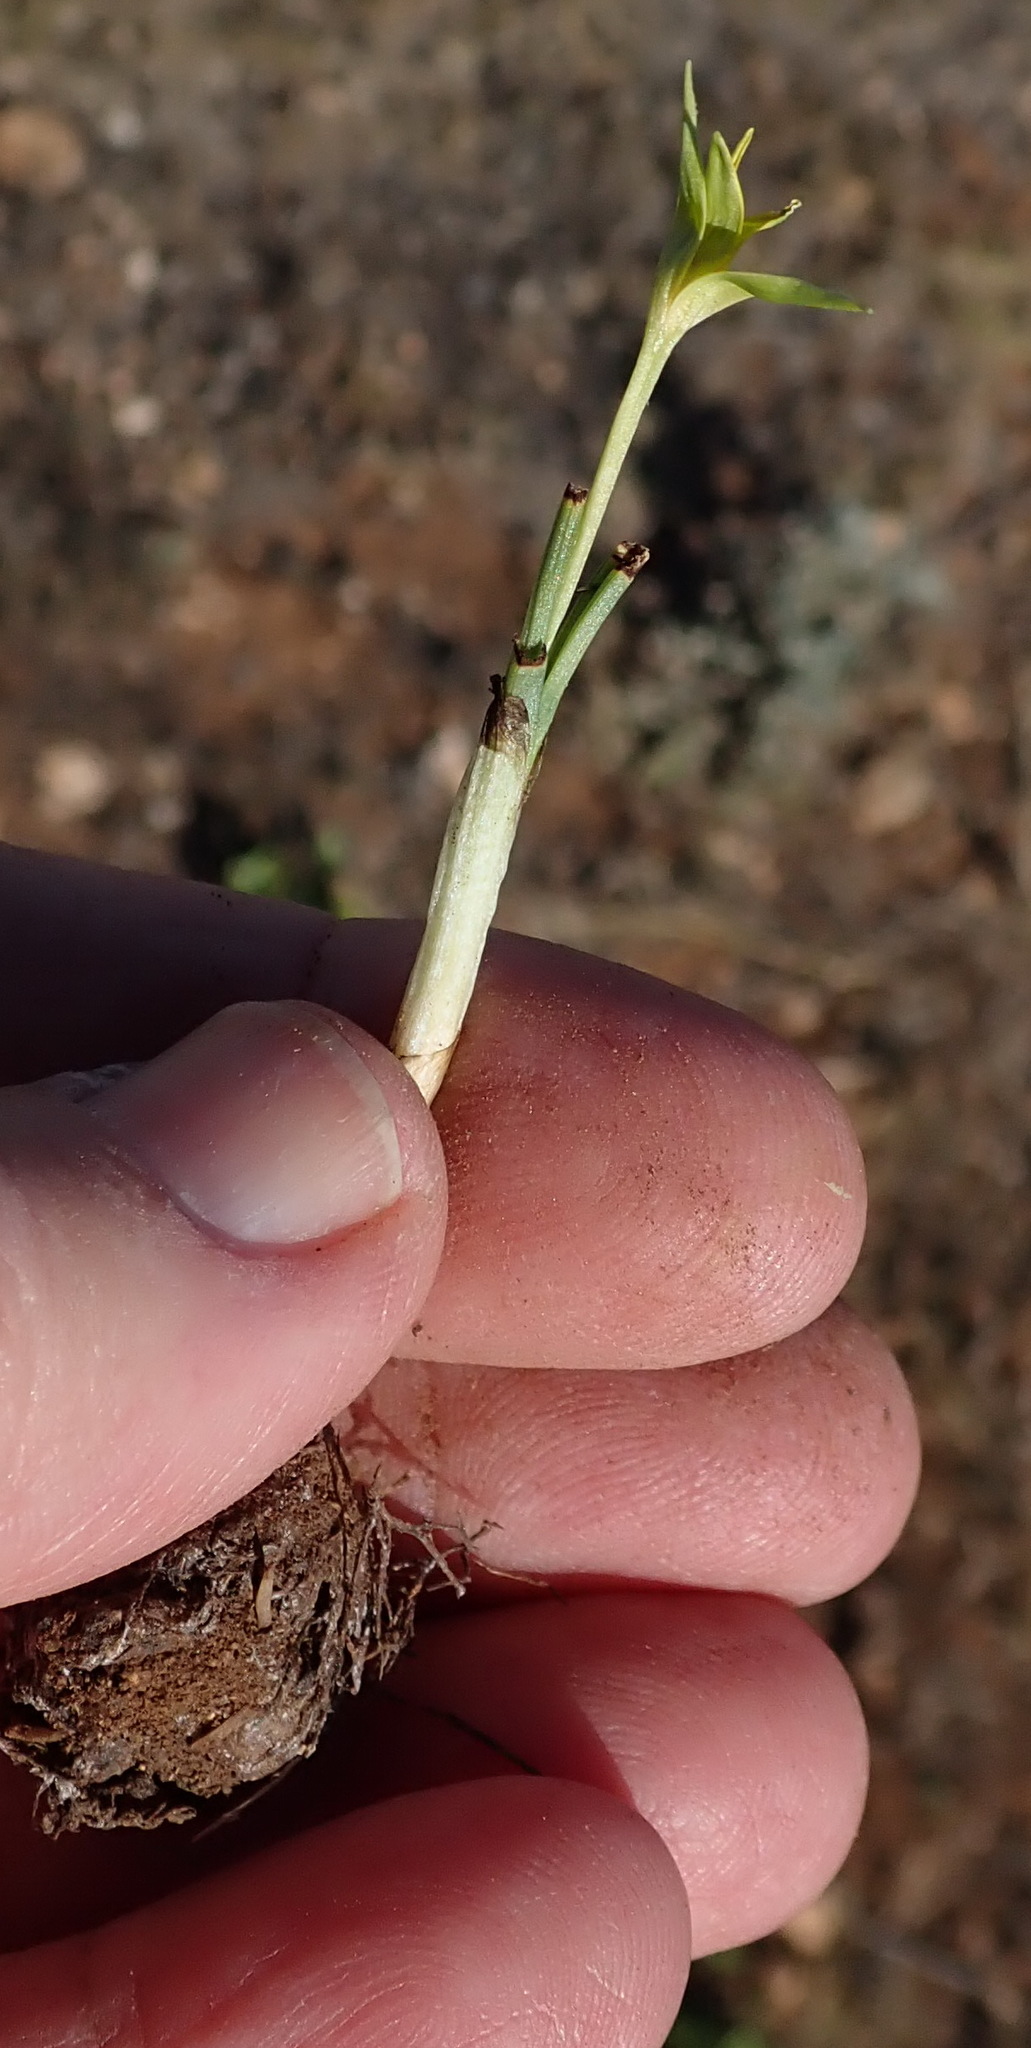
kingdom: Plantae
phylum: Tracheophyta
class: Liliopsida
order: Asparagales
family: Hypoxidaceae
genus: Empodium
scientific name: Empodium gloriosum
